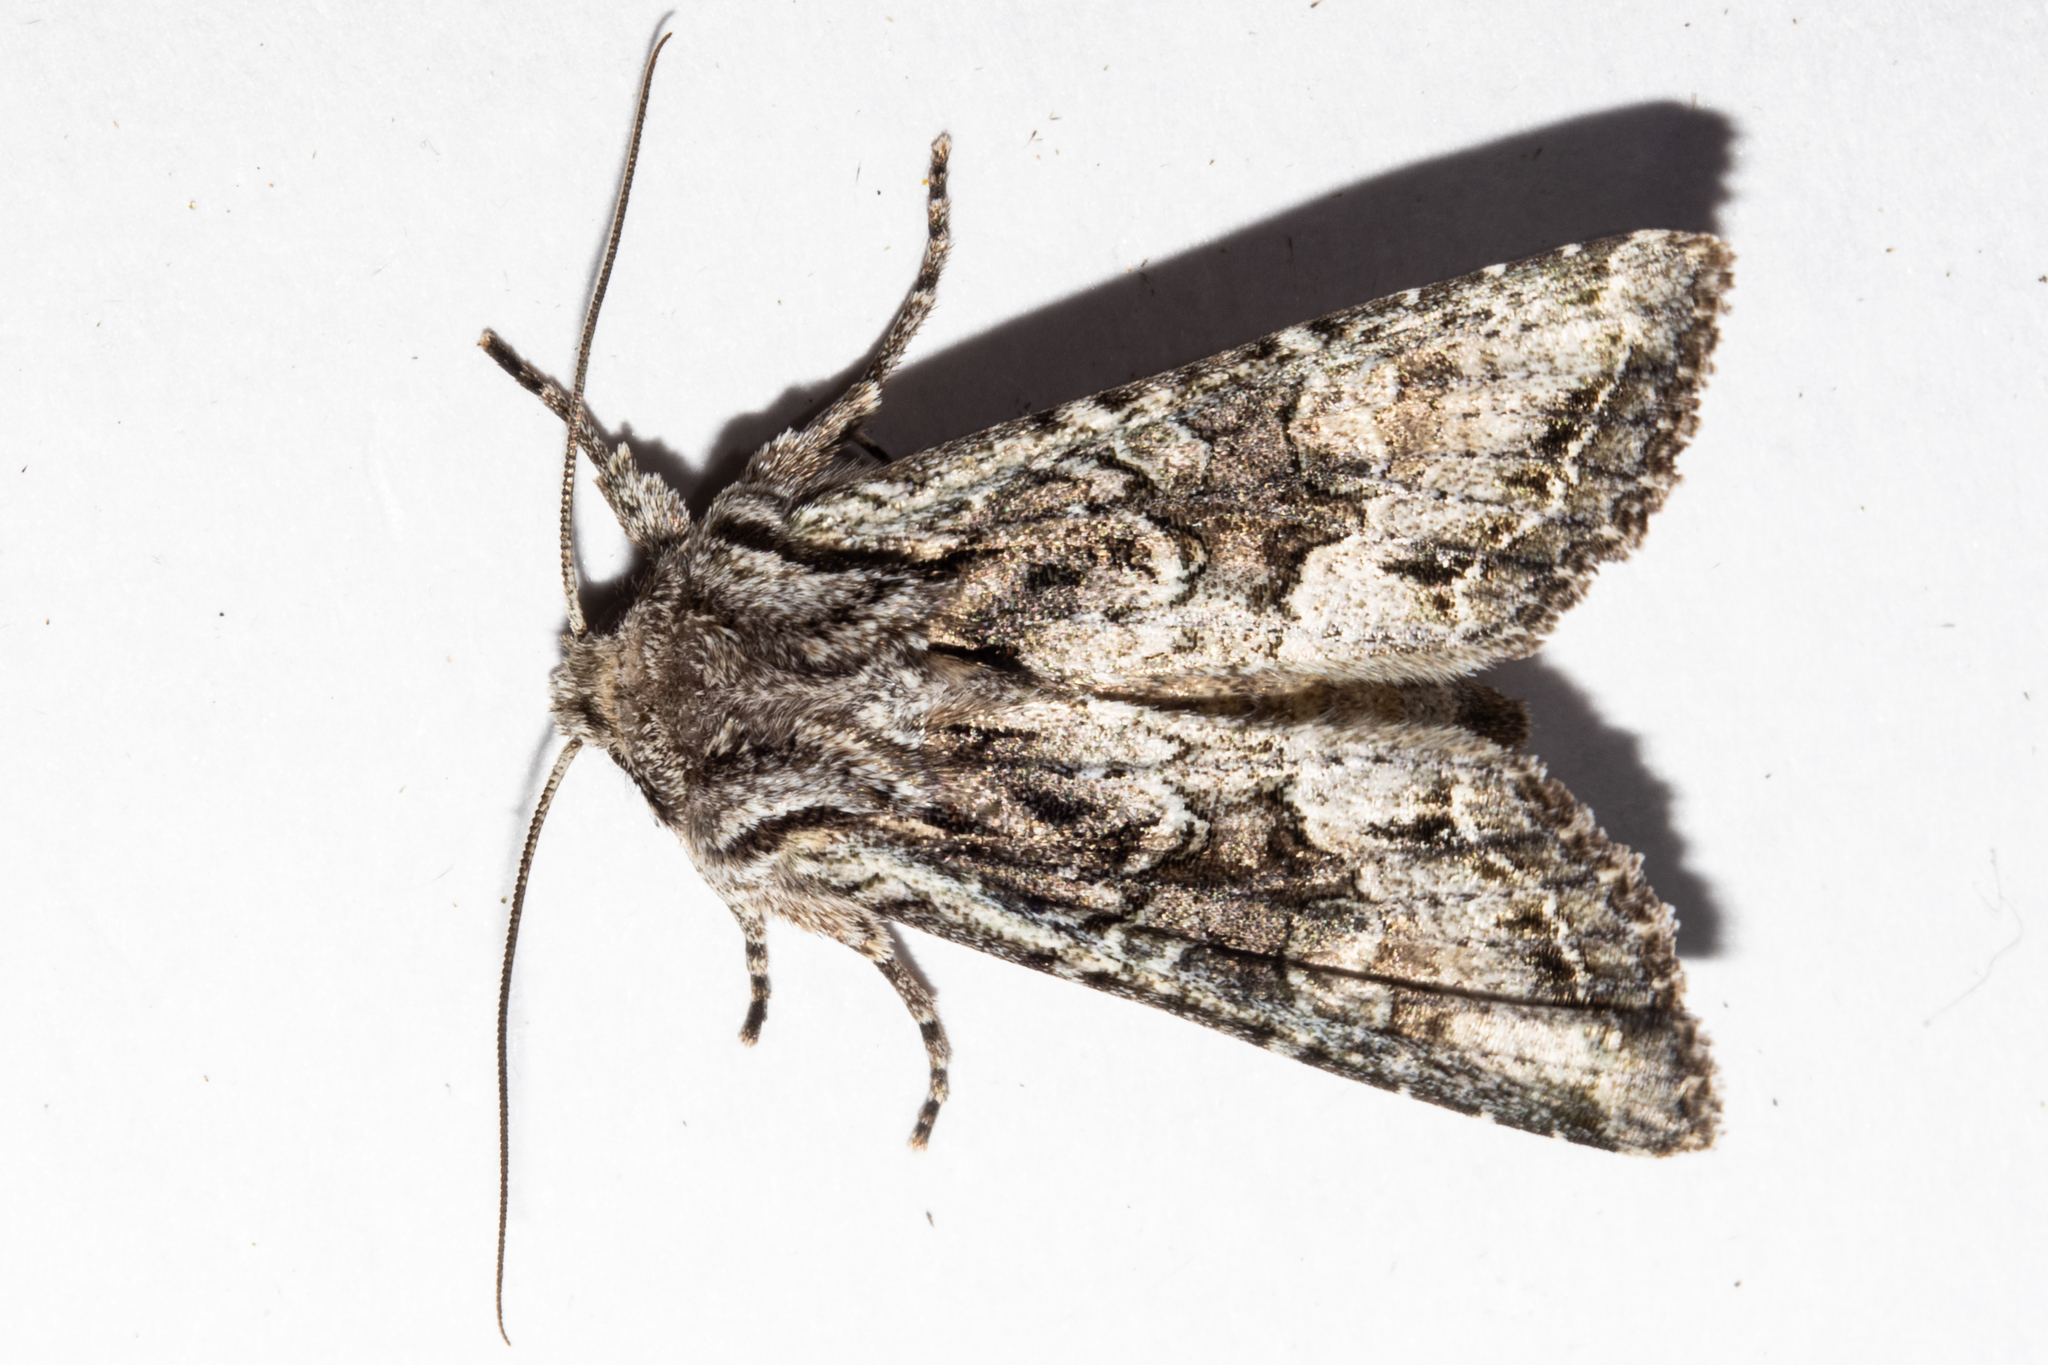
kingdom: Animalia
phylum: Arthropoda
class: Insecta
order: Lepidoptera
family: Noctuidae
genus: Ichneutica
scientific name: Ichneutica mutans
